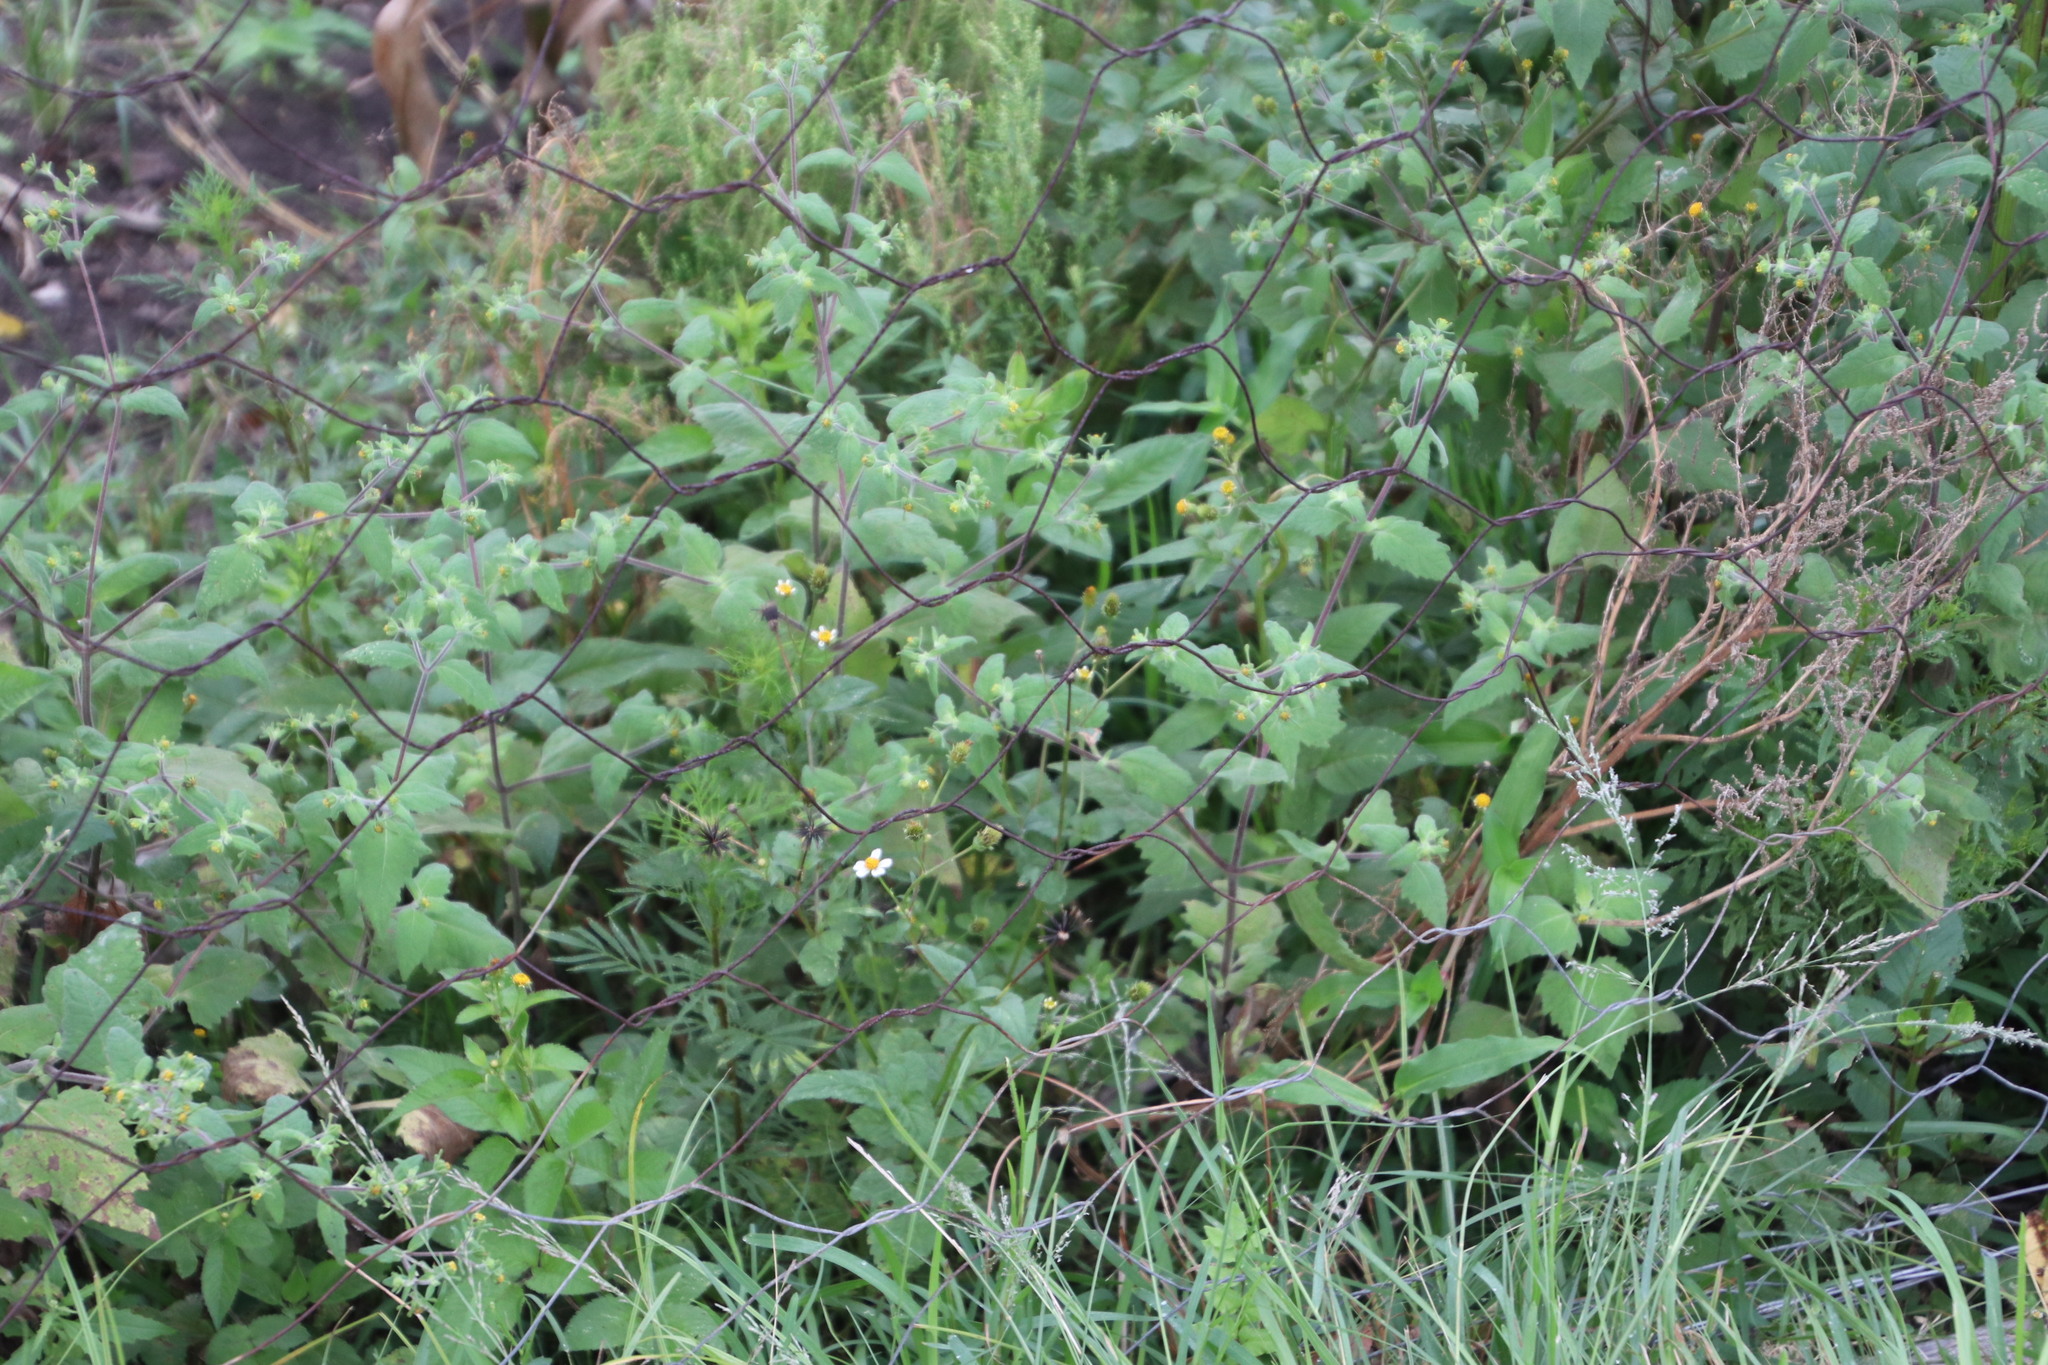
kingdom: Plantae
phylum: Tracheophyta
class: Magnoliopsida
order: Asterales
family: Asteraceae
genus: Tagetes
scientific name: Tagetes minuta
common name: Muster john henry
